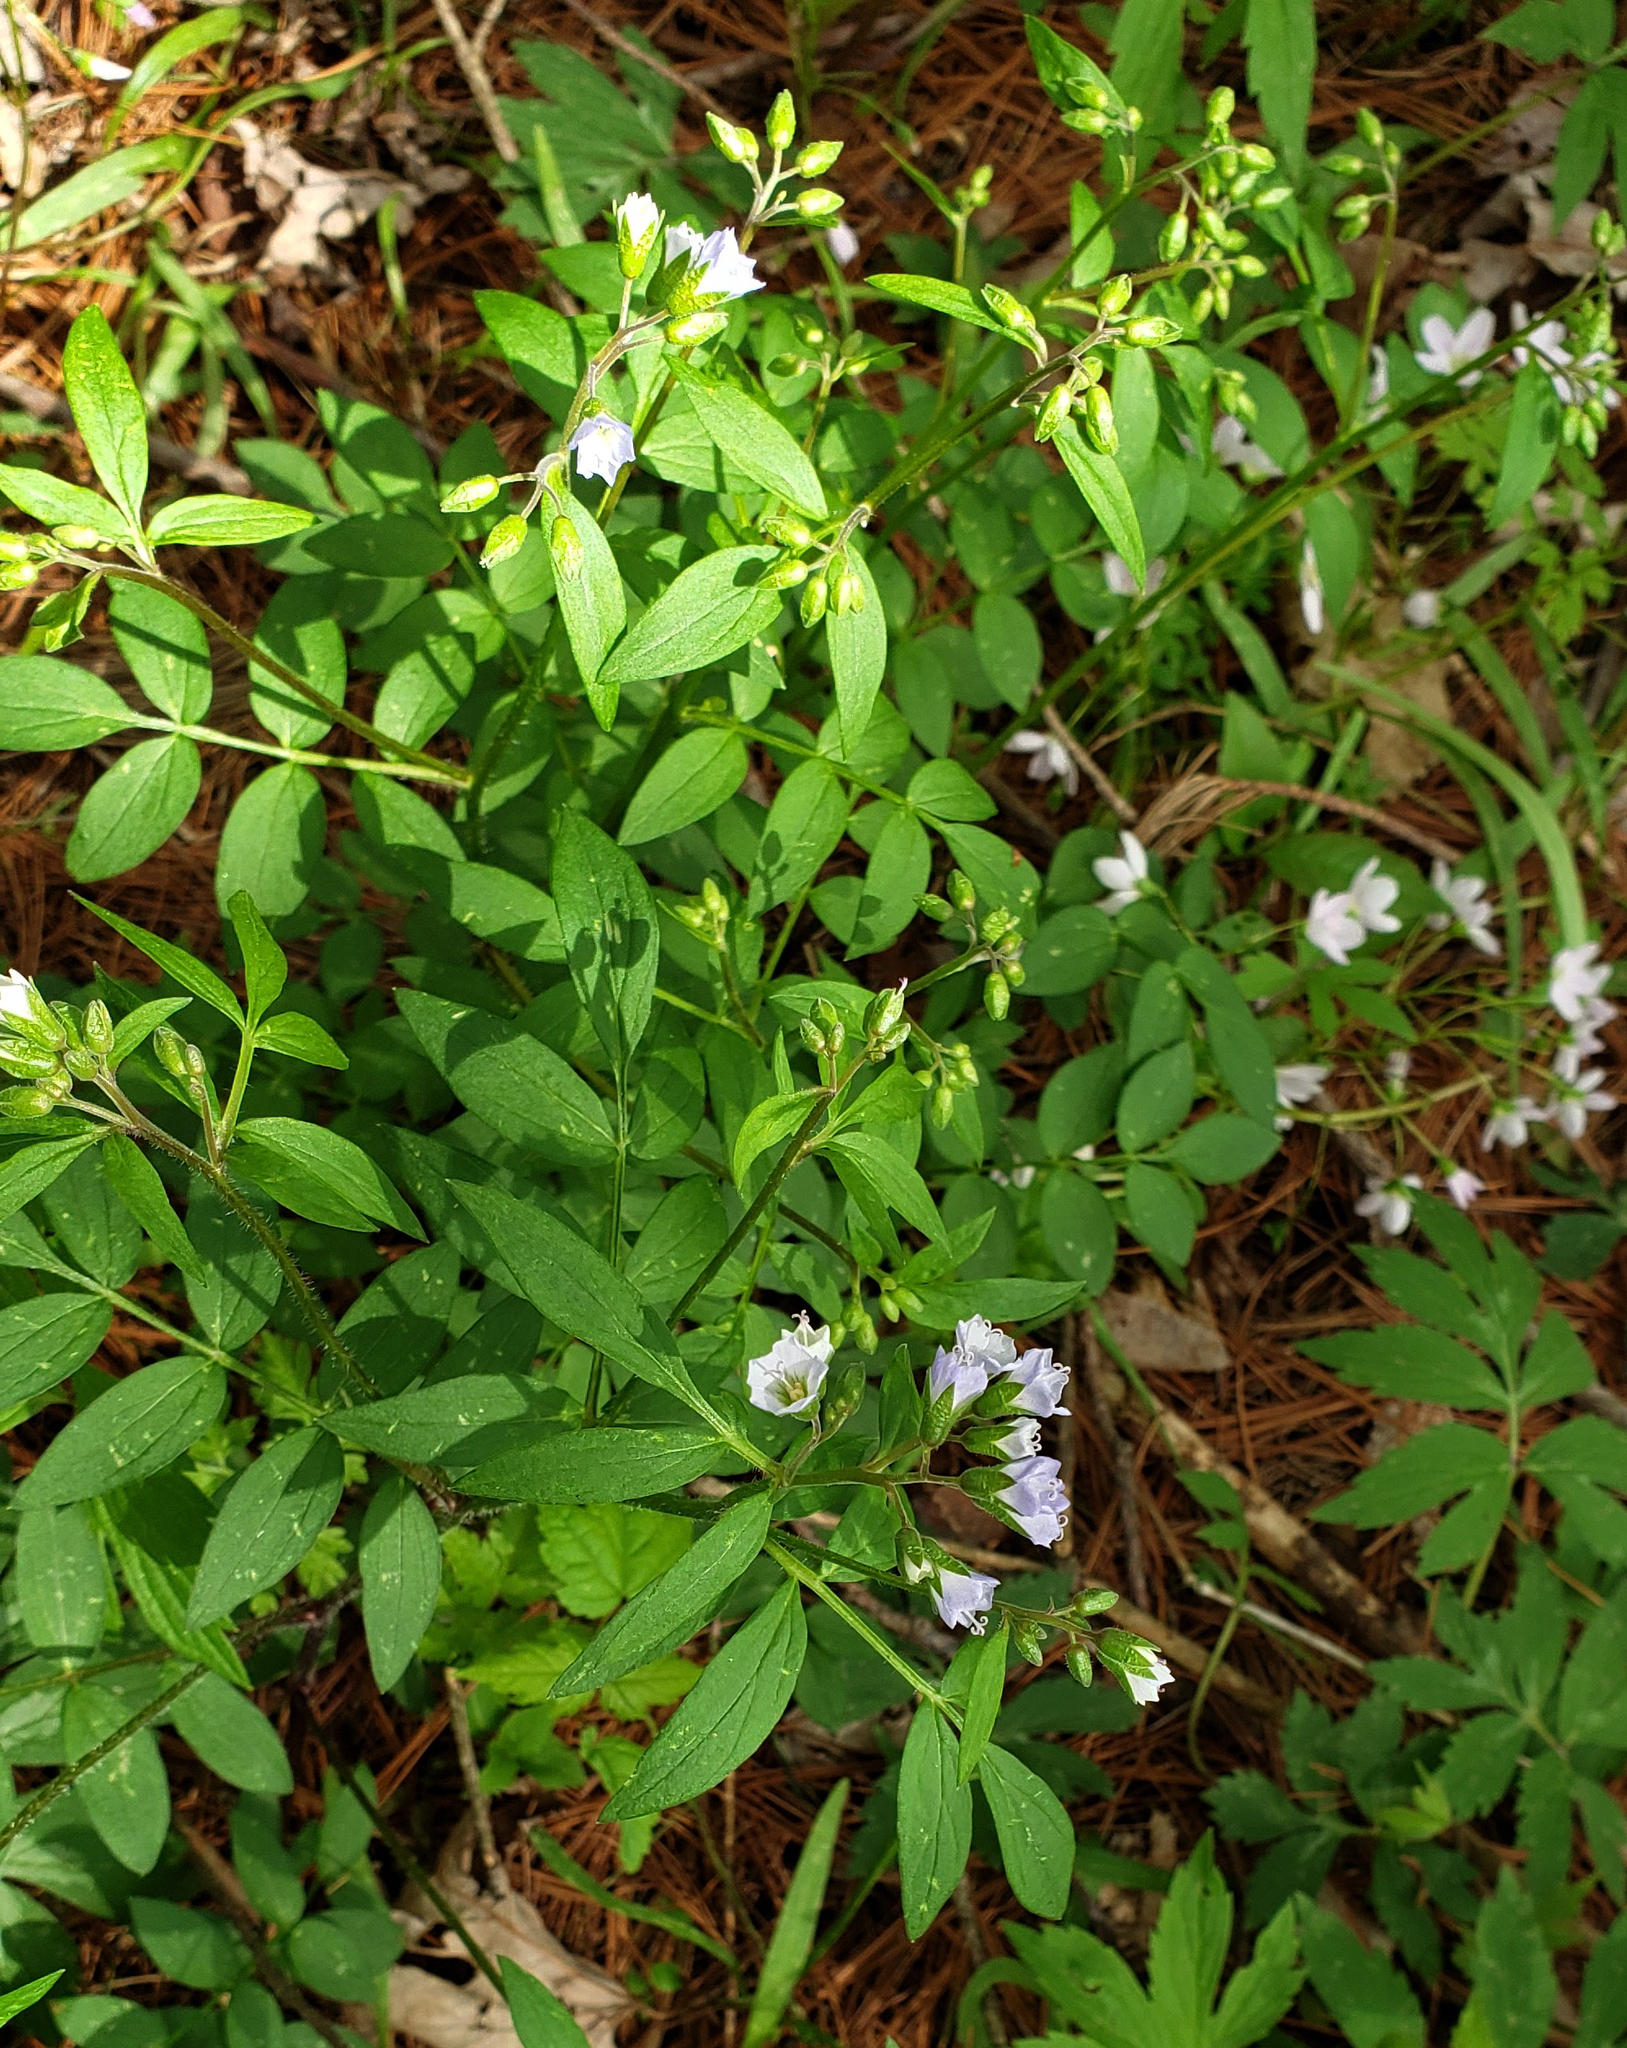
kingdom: Plantae
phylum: Tracheophyta
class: Magnoliopsida
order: Ericales
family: Polemoniaceae
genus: Polemonium
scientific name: Polemonium reptans
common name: Creeping jacob's-ladder
